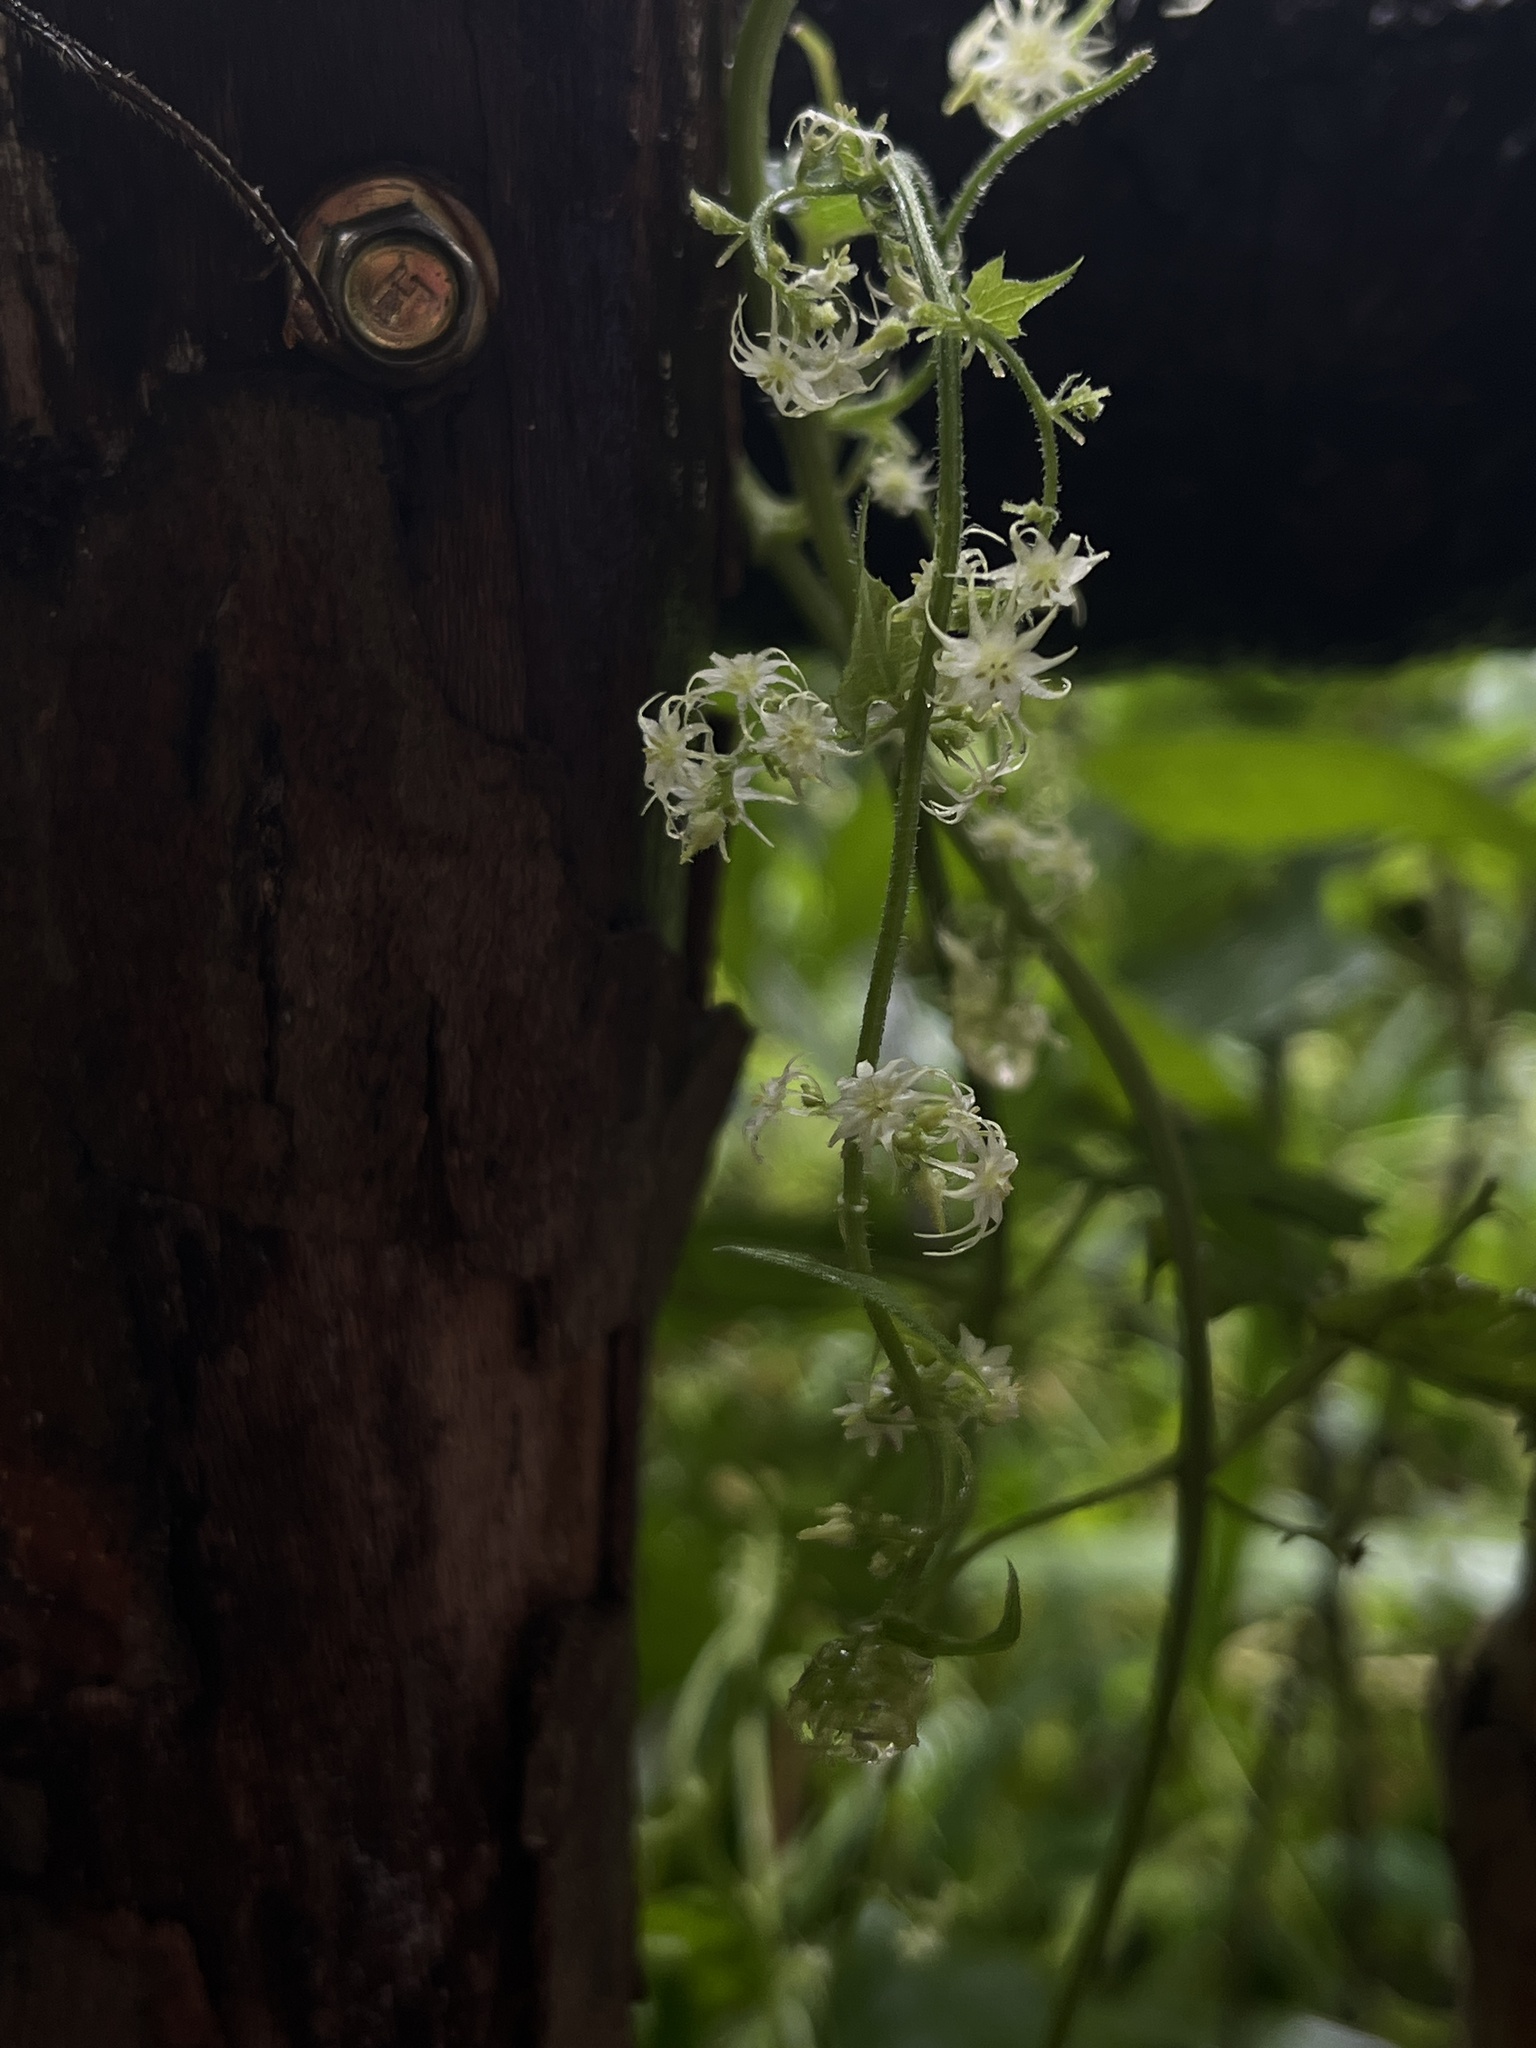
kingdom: Plantae
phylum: Tracheophyta
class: Magnoliopsida
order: Cucurbitales
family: Cucurbitaceae
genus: Actinostemma
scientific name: Actinostemma tenerum
